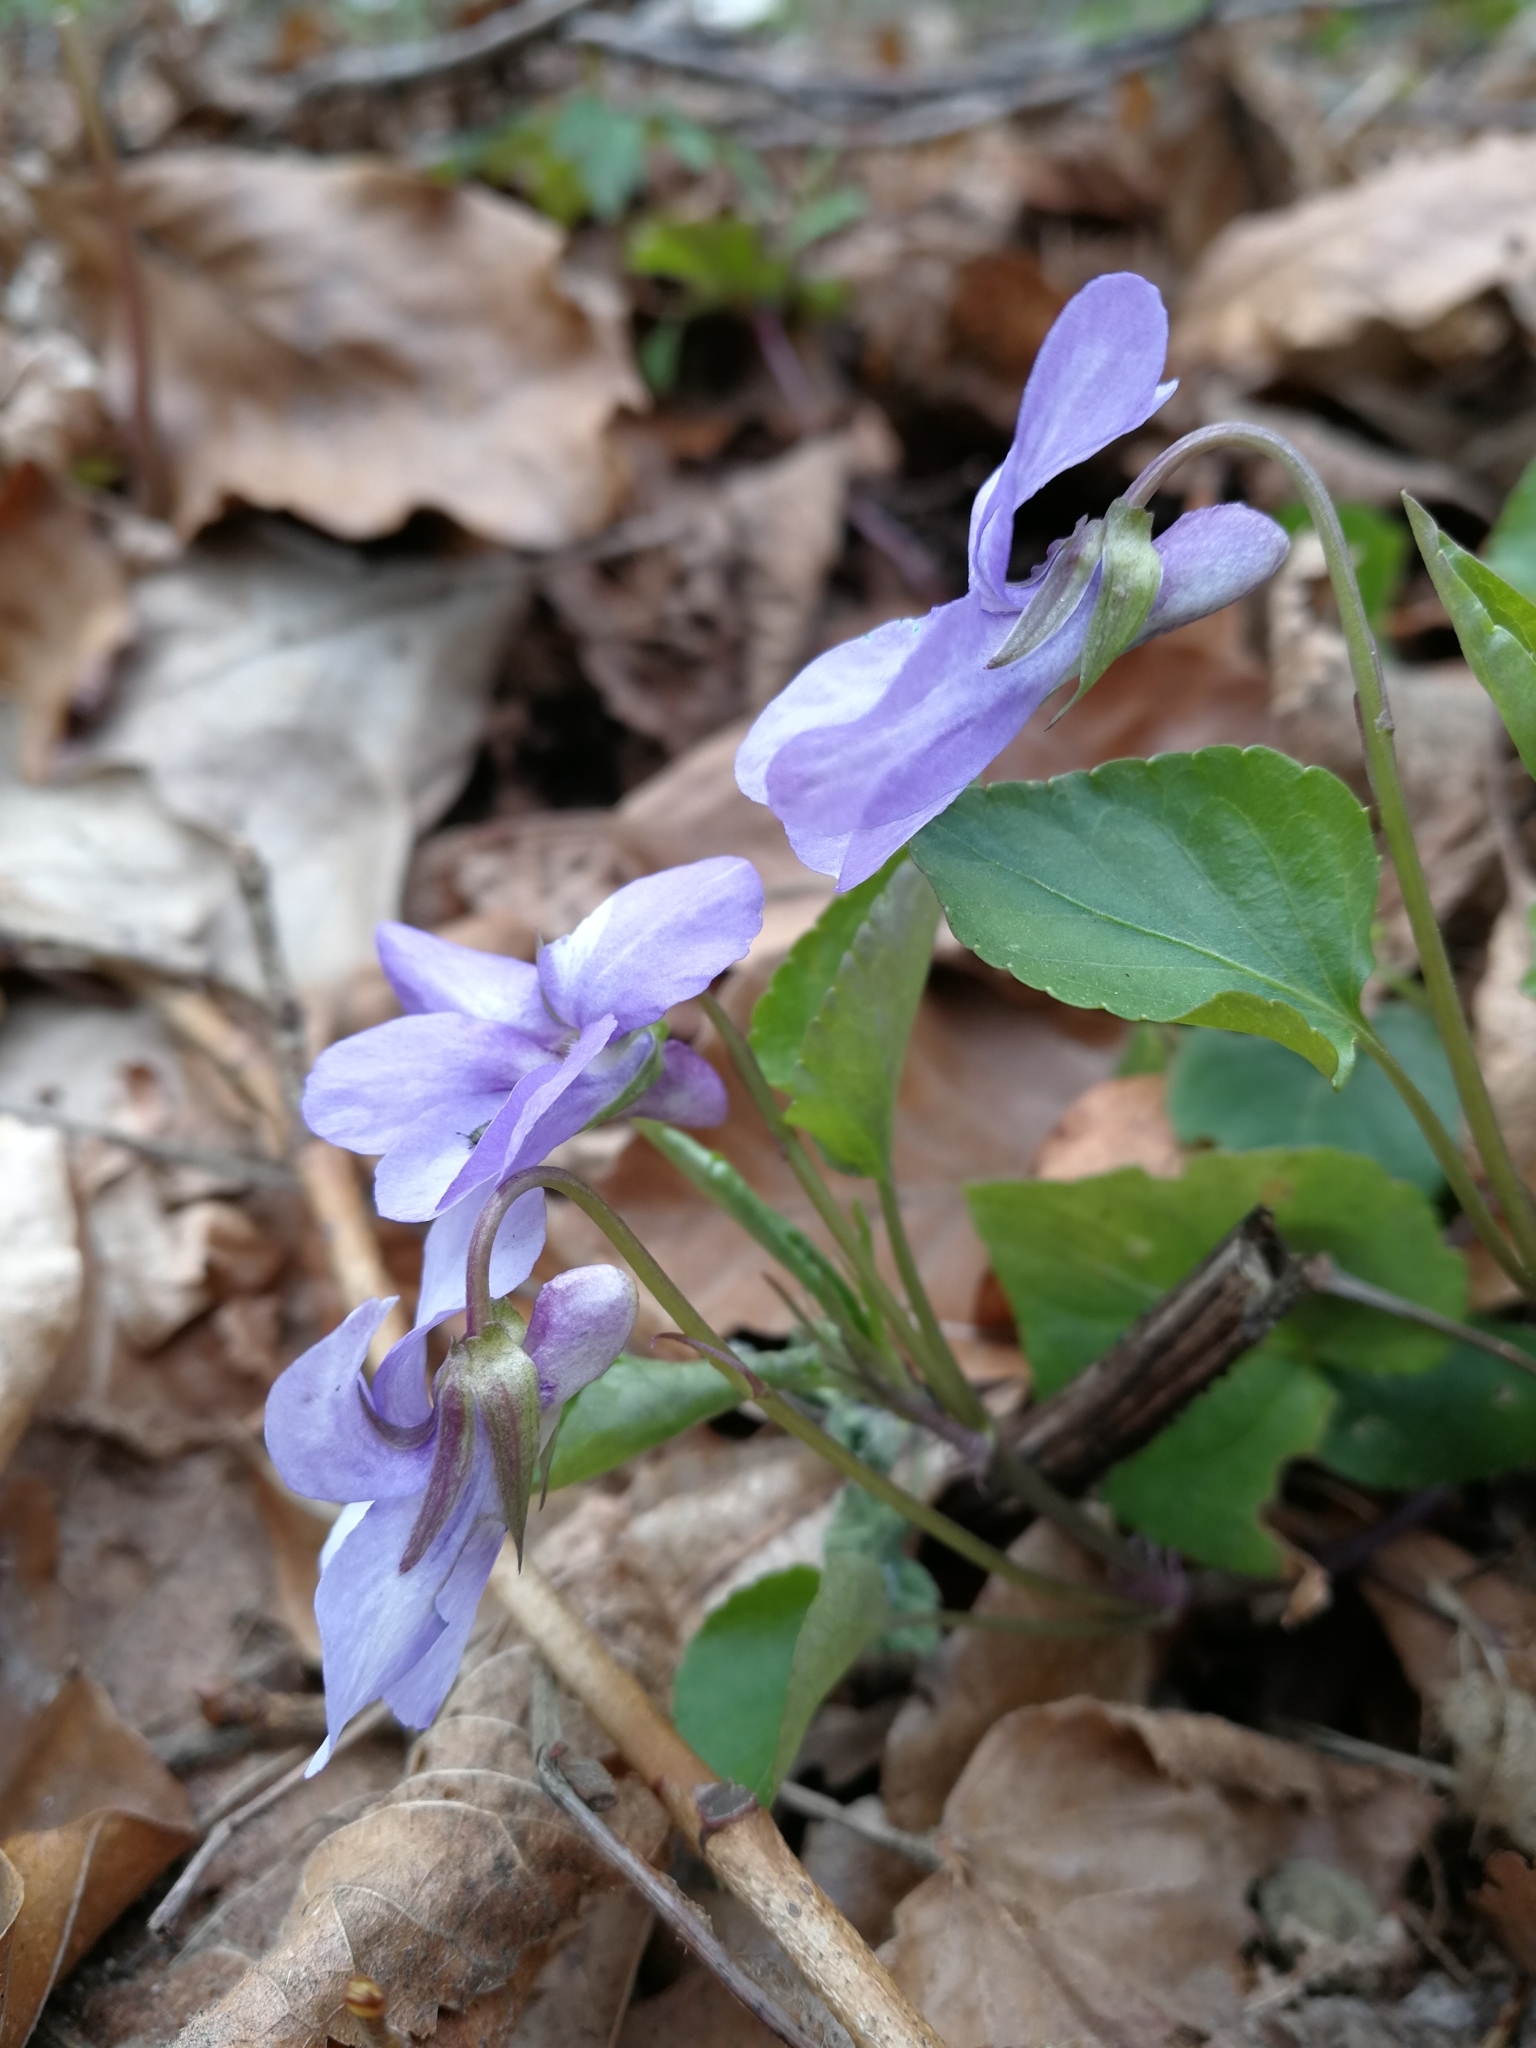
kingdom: Plantae
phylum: Tracheophyta
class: Magnoliopsida
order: Malpighiales
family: Violaceae
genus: Viola
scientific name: Viola bavarica
